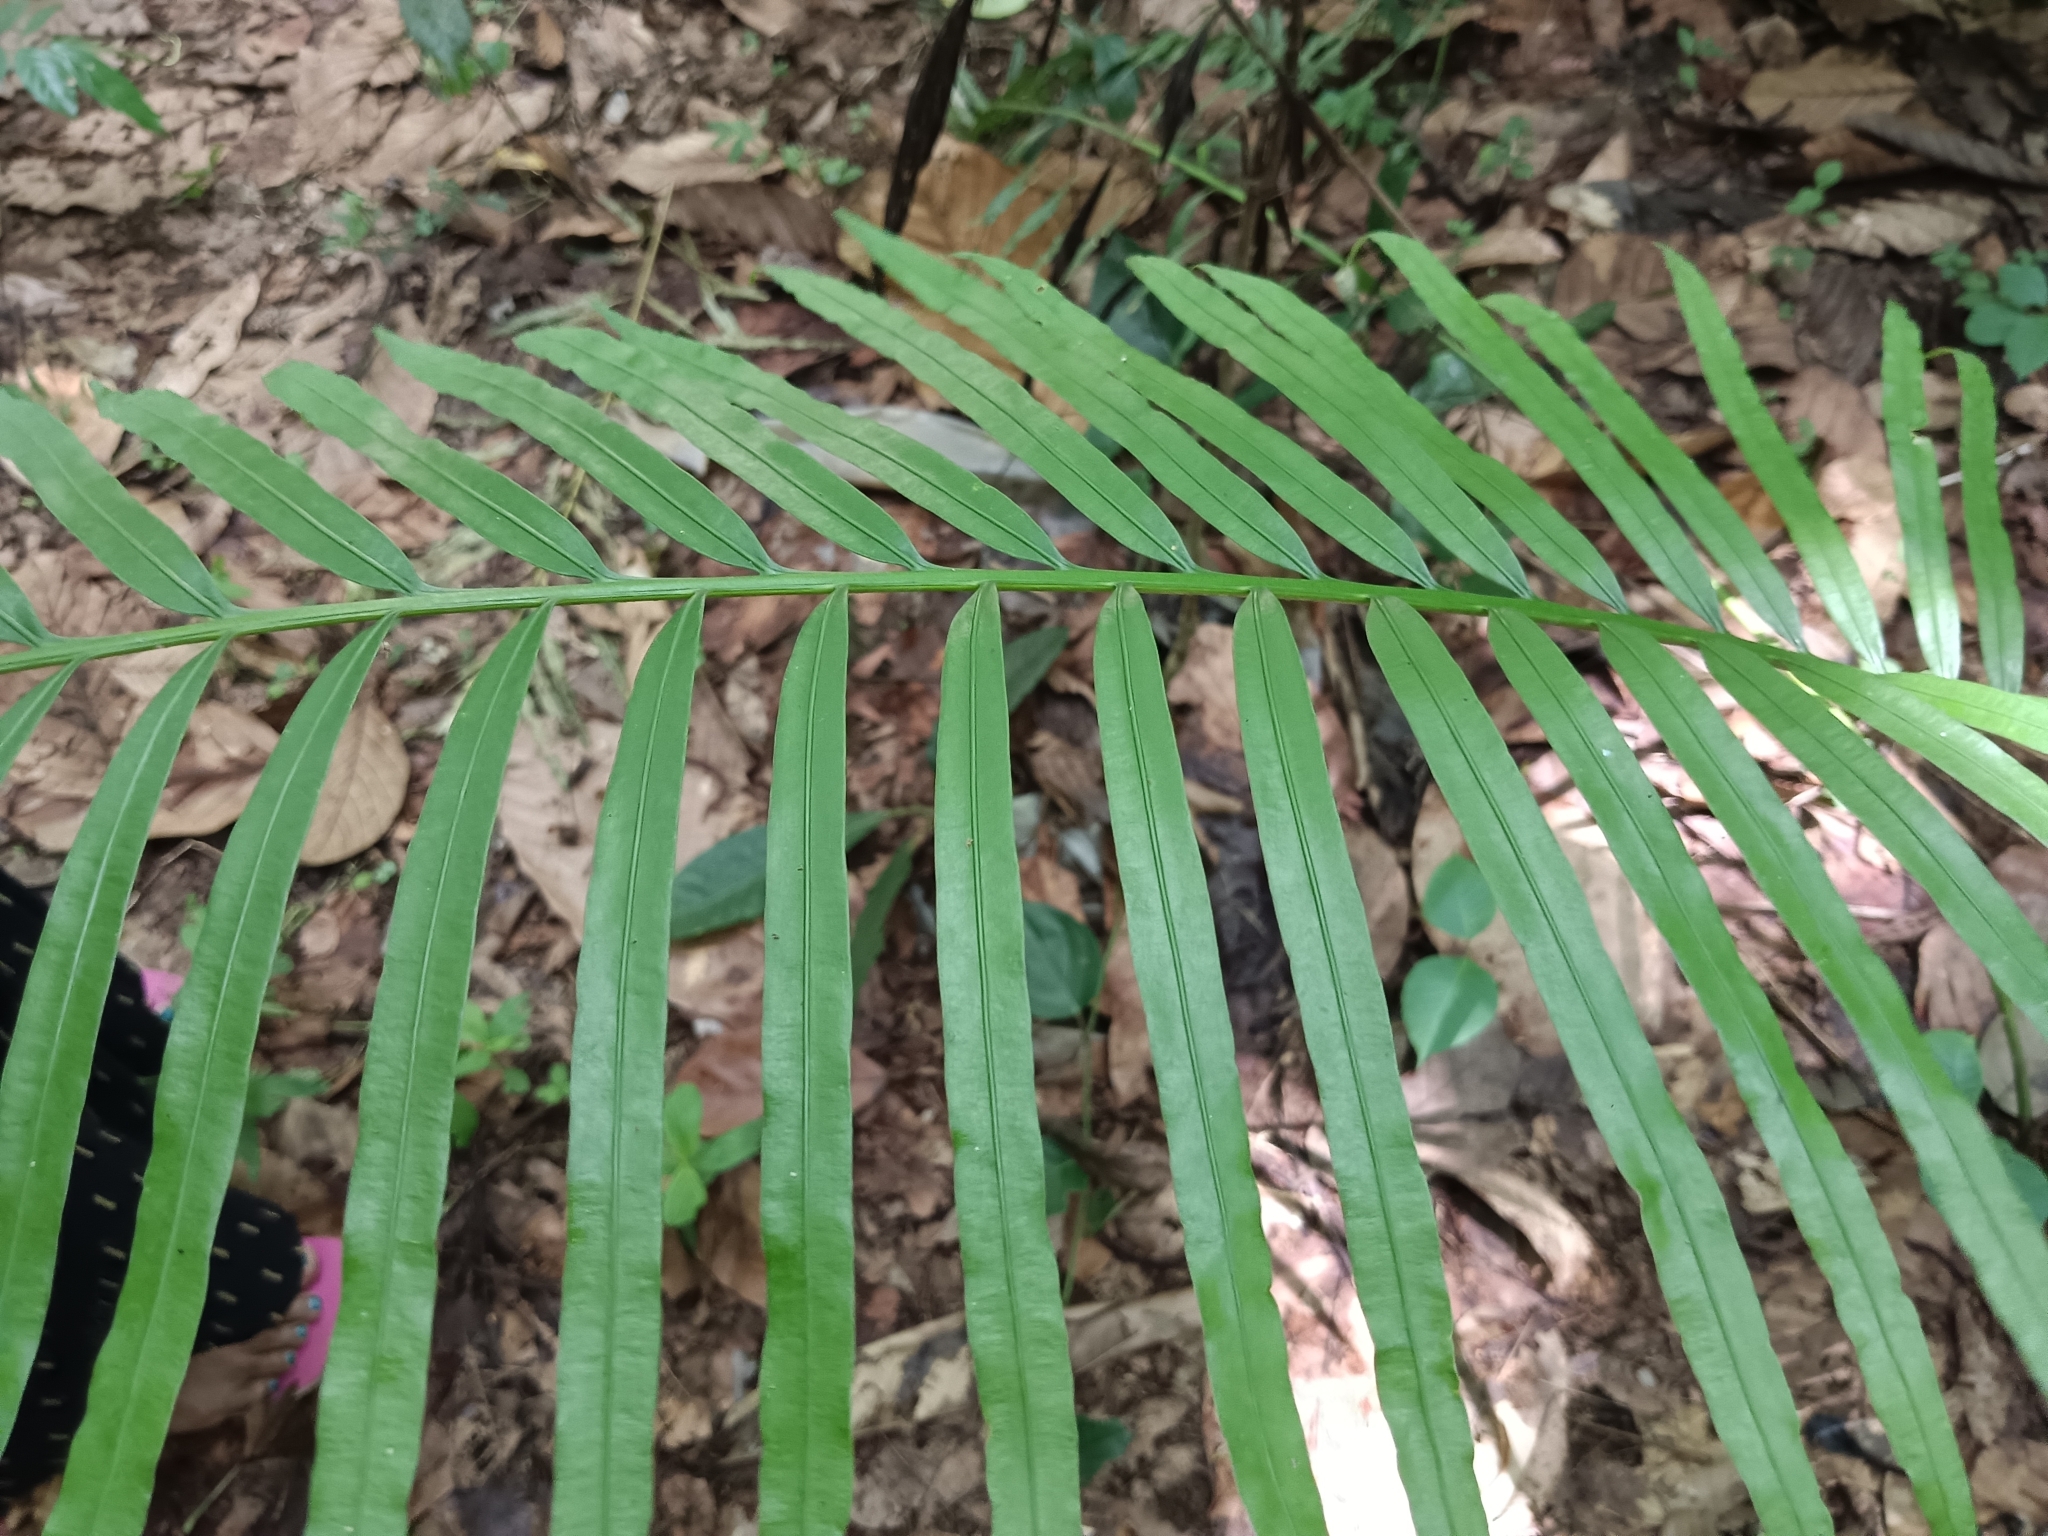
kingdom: Plantae
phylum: Tracheophyta
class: Cycadopsida
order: Cycadales
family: Cycadaceae
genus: Cycas
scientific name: Cycas circinalis
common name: Queen sago
